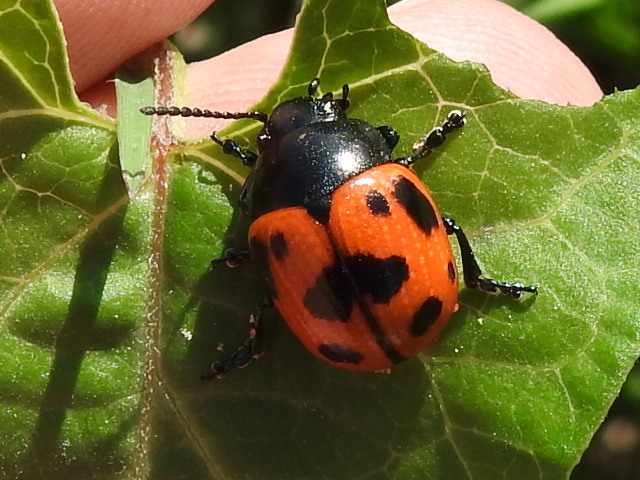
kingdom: Animalia
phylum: Arthropoda
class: Insecta
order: Coleoptera
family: Chrysomelidae
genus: Labidomera
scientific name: Labidomera clivicollis
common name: Swamp milkweed leaf beetle
